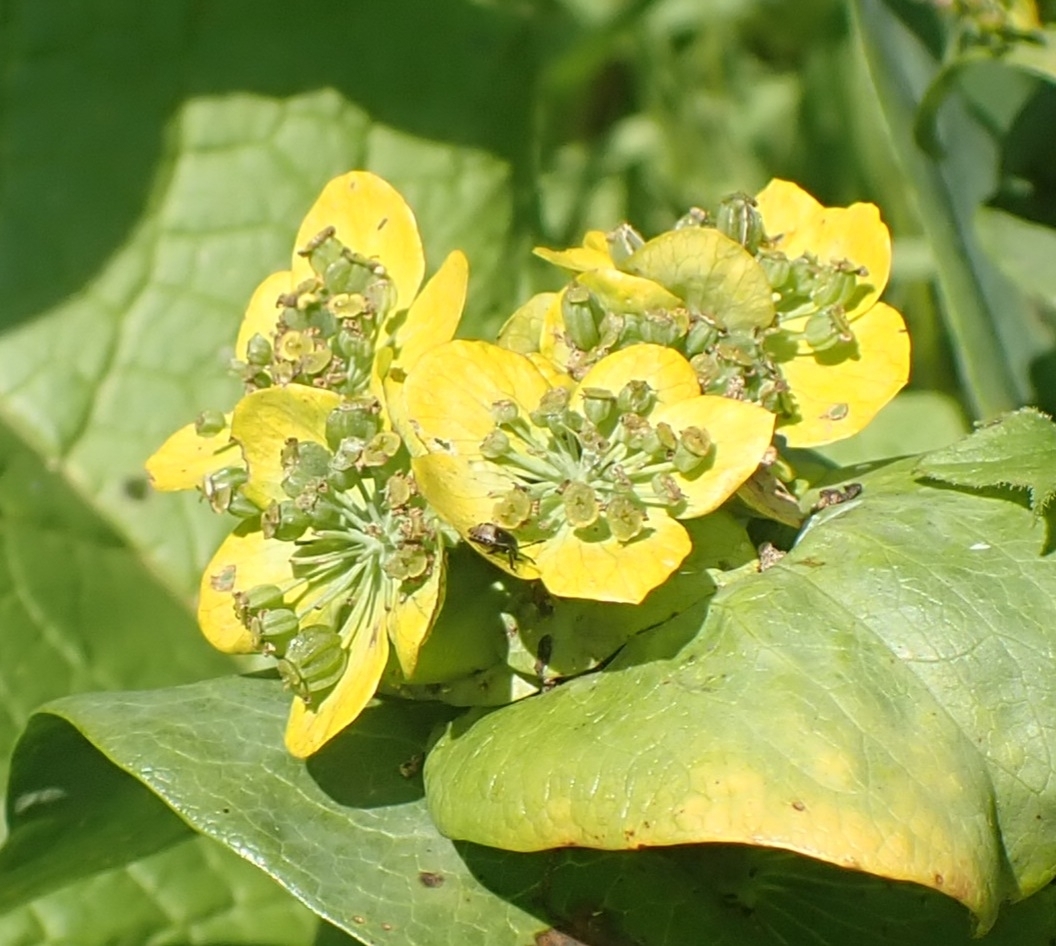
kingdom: Plantae
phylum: Tracheophyta
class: Magnoliopsida
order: Apiales
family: Apiaceae
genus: Bupleurum
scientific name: Bupleurum aureum
